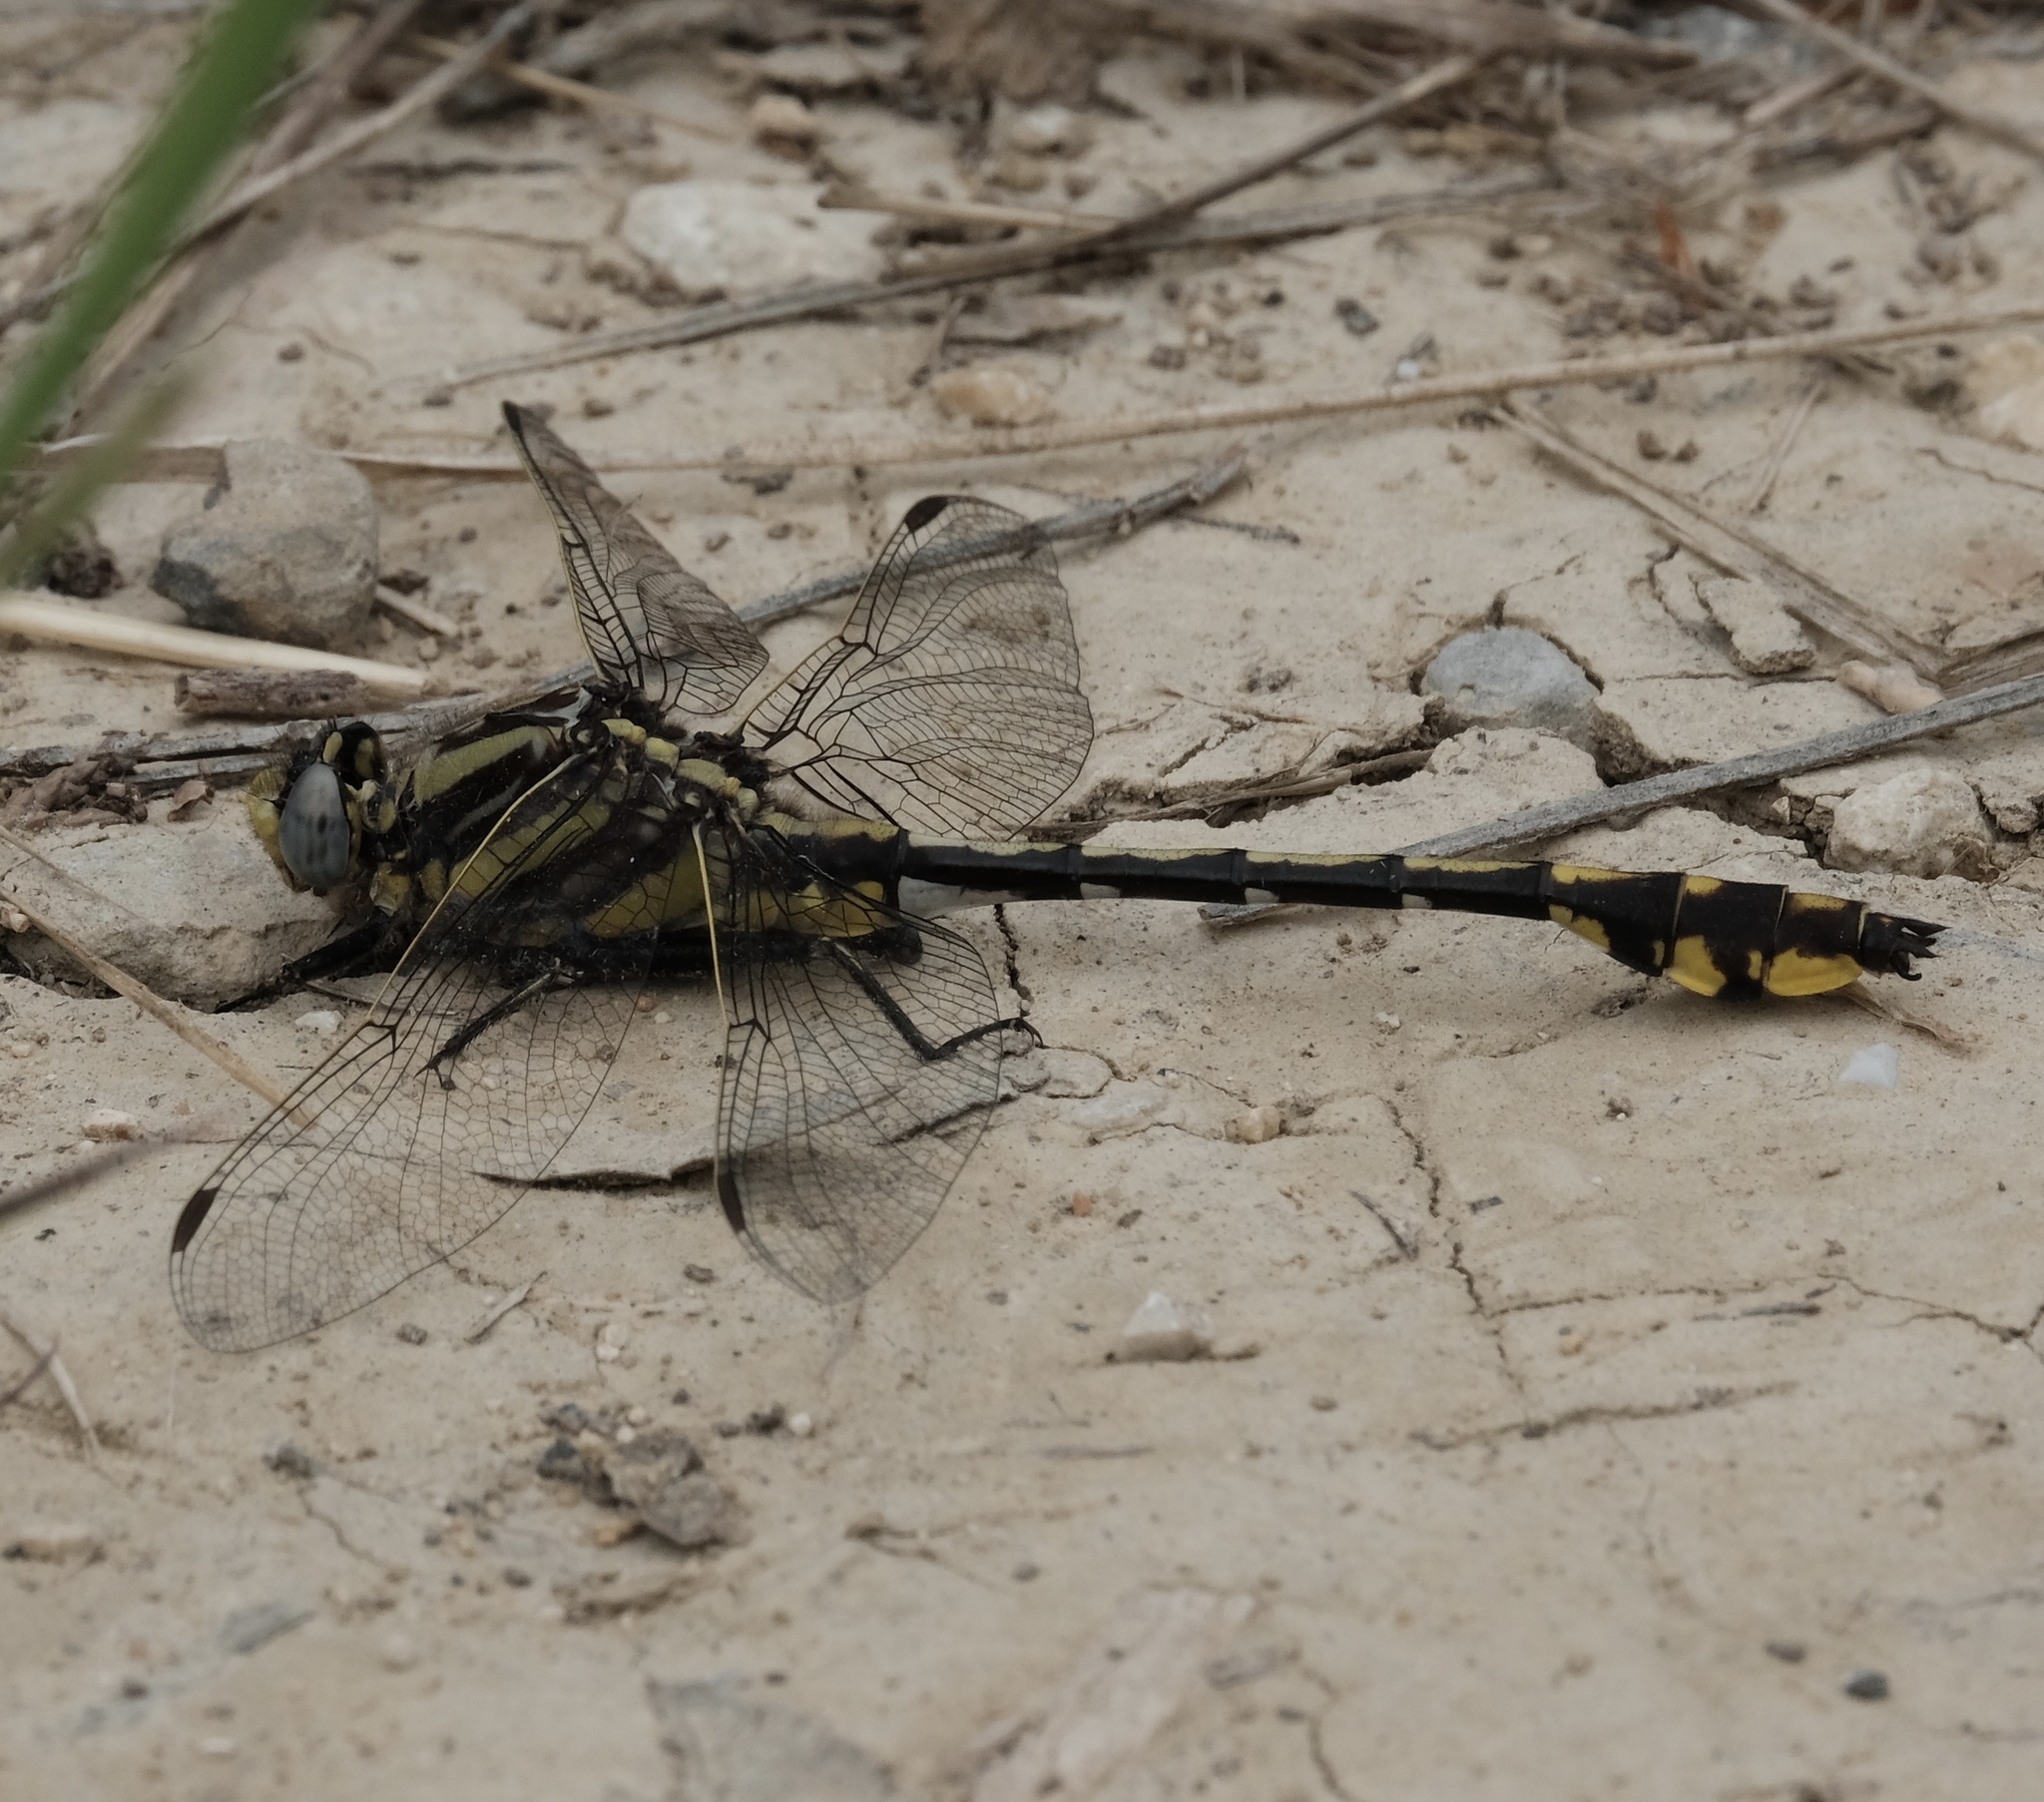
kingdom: Animalia
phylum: Arthropoda
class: Insecta
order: Odonata
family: Gomphidae
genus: Gomphurus
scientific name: Gomphurus externus
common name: Plains clubtail
